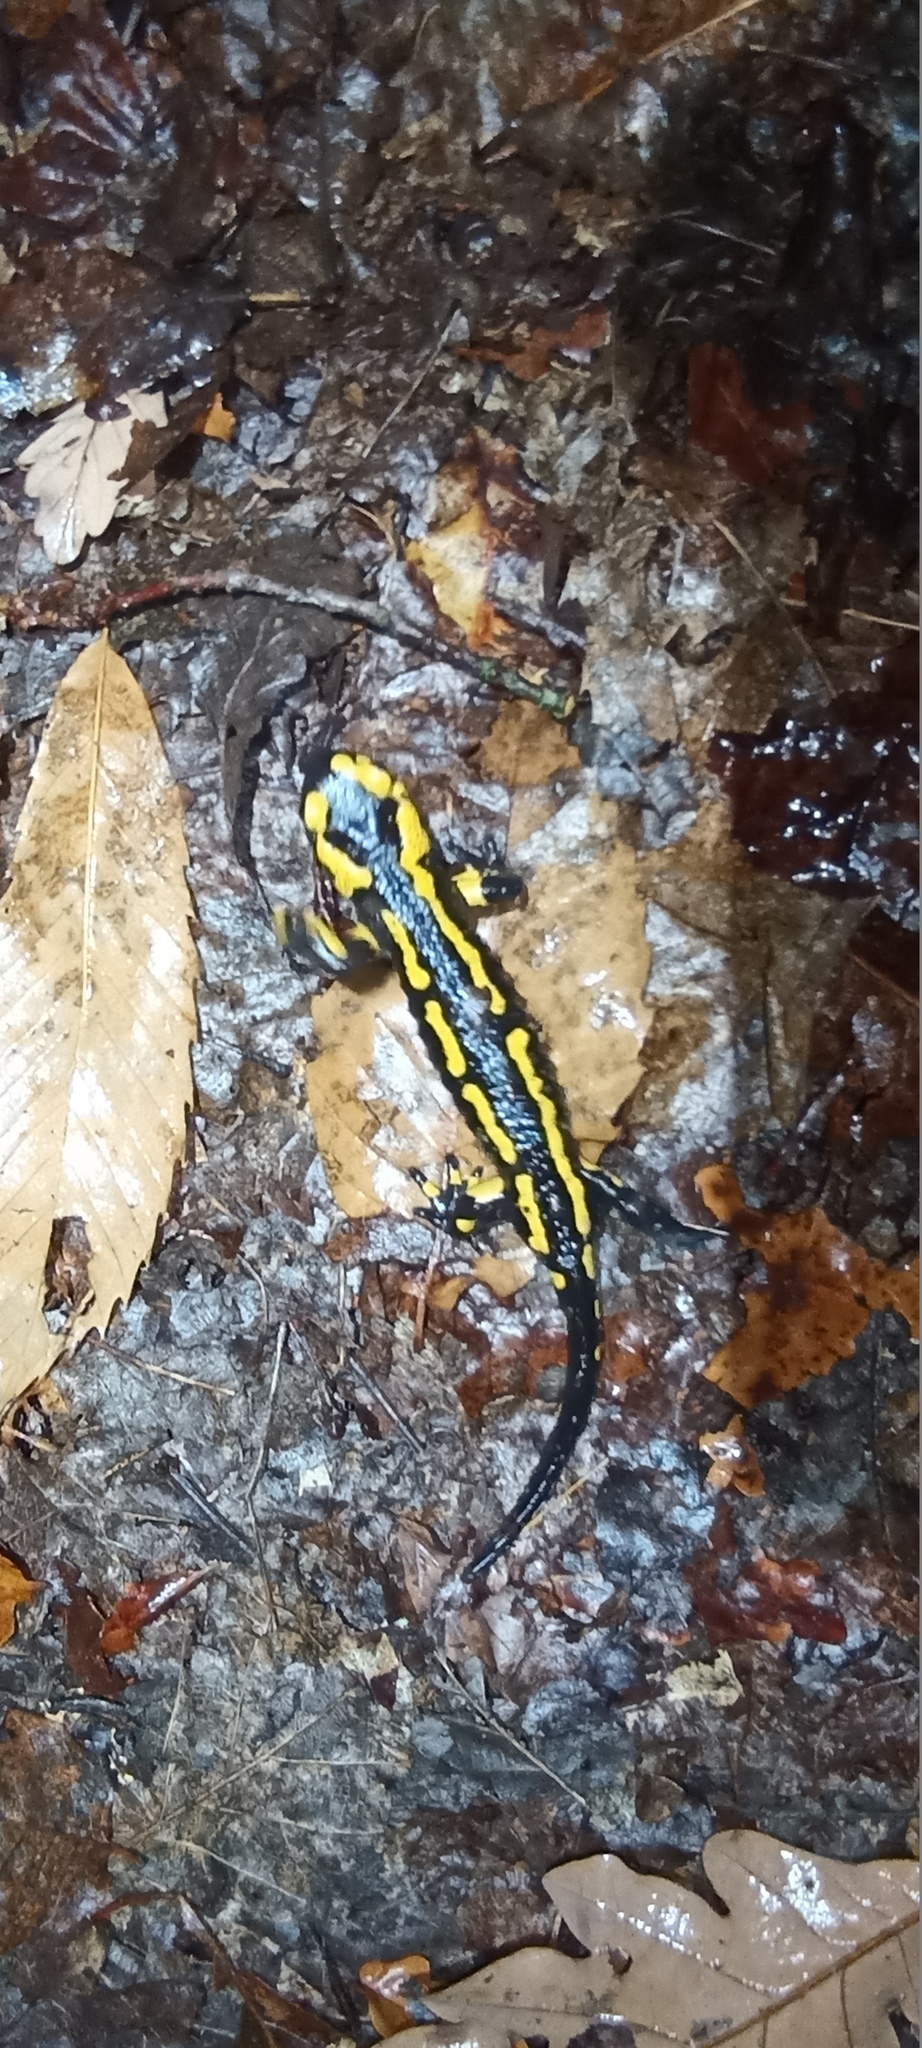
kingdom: Animalia
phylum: Chordata
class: Amphibia
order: Caudata
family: Salamandridae
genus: Salamandra
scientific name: Salamandra salamandra
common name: Fire salamander
